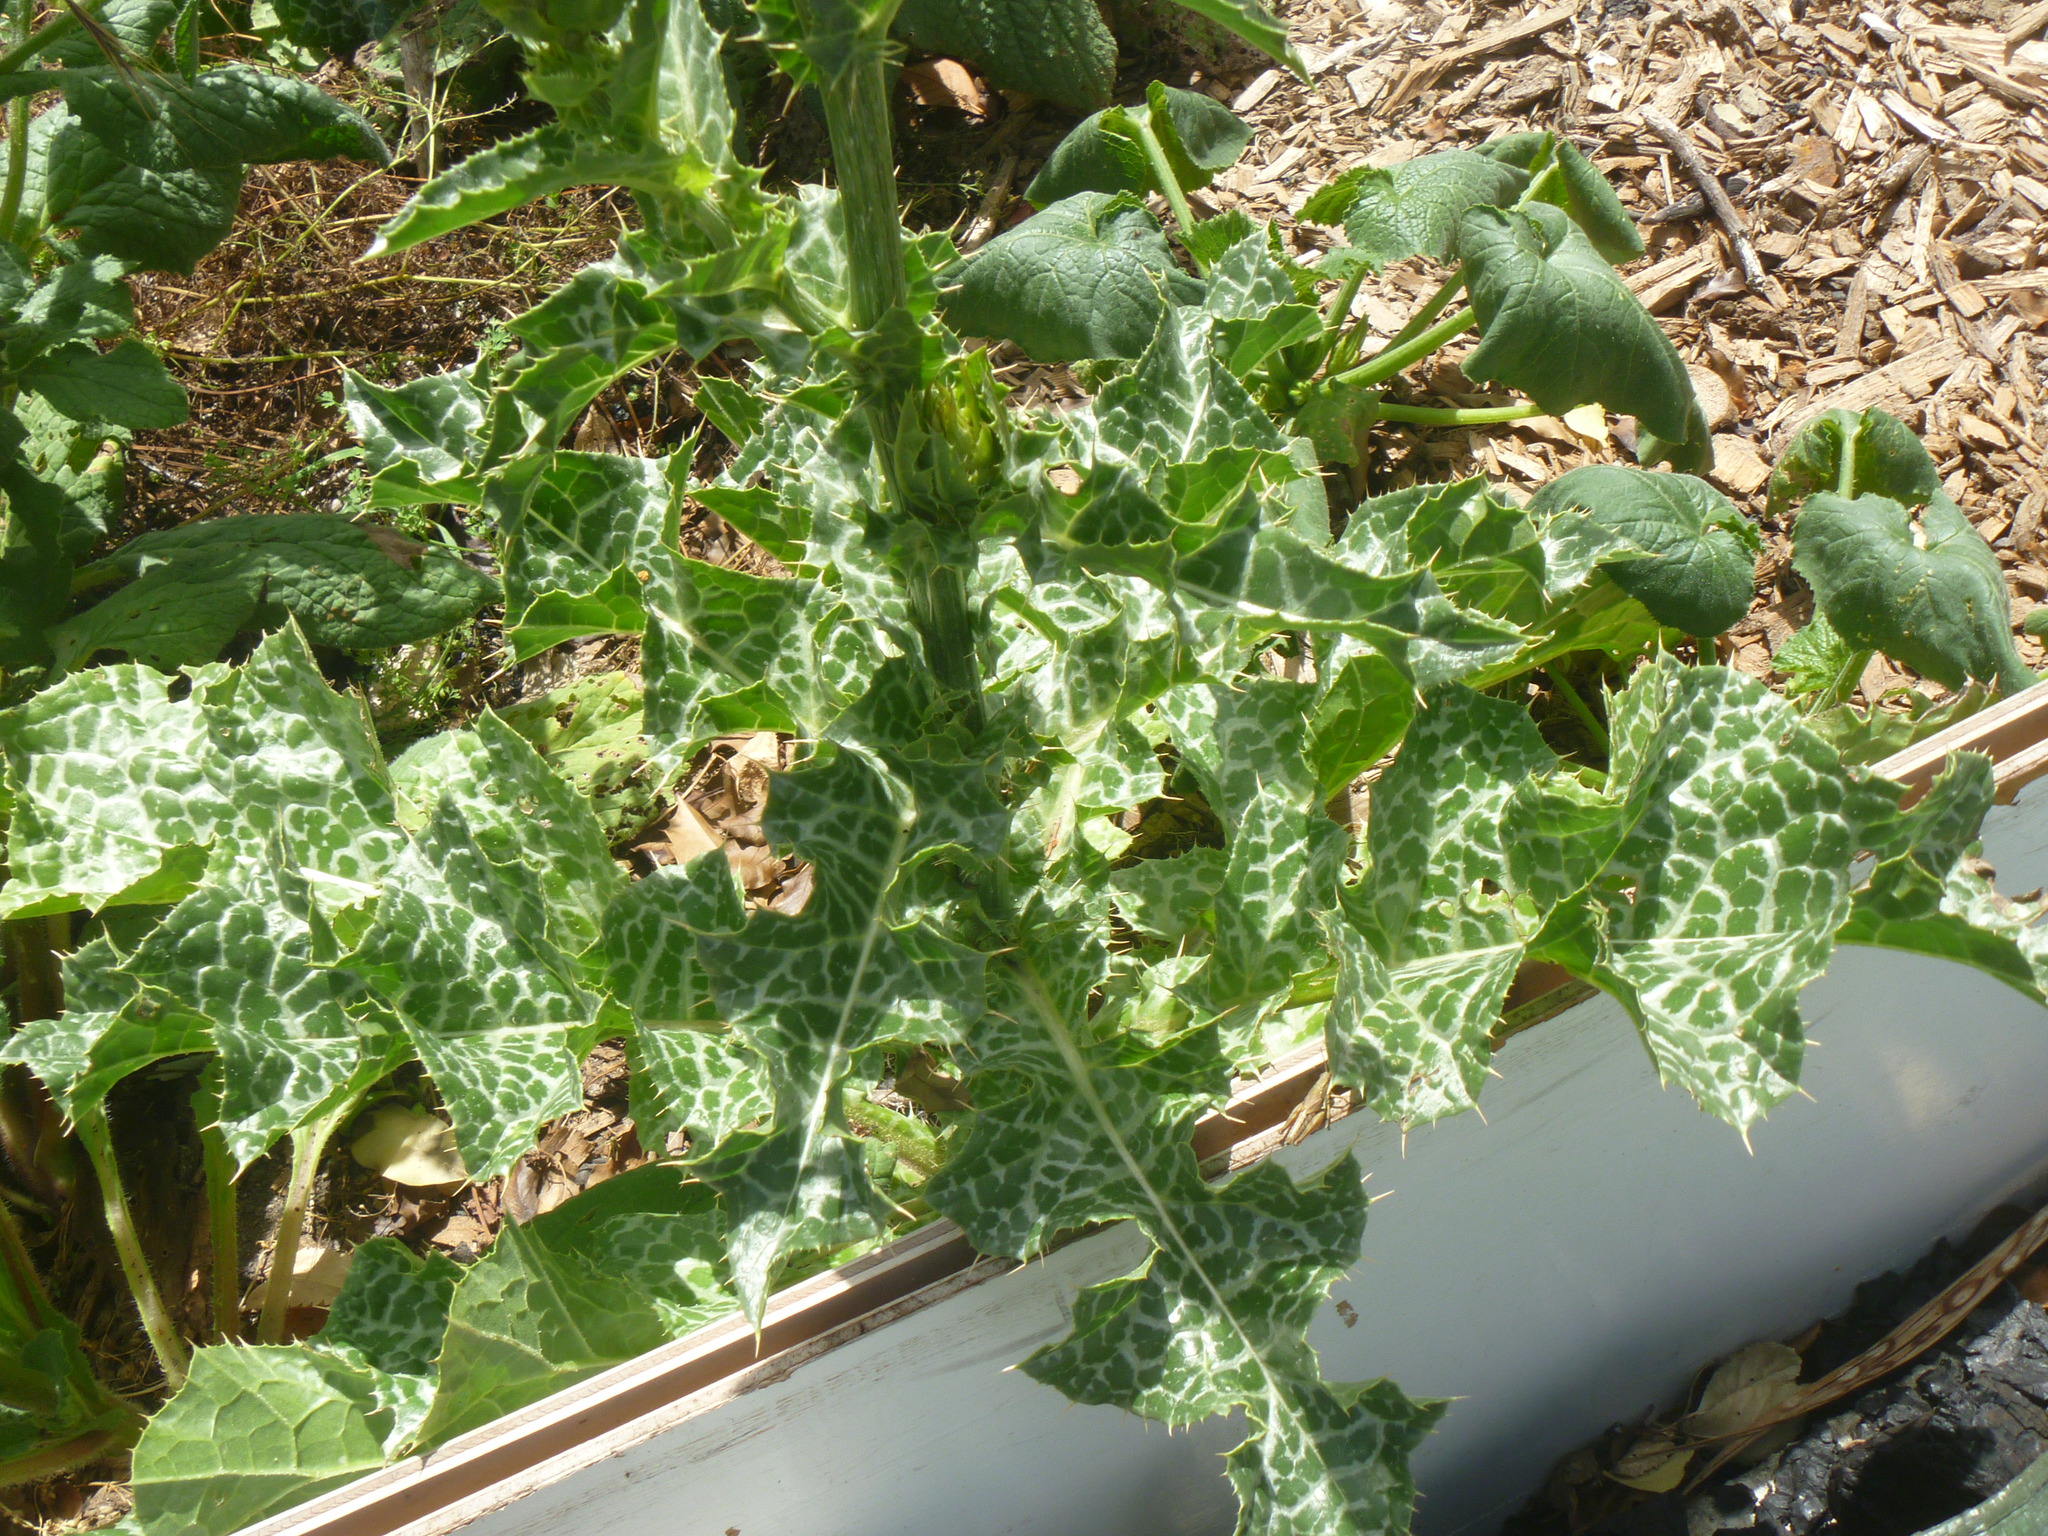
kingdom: Plantae
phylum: Tracheophyta
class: Magnoliopsida
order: Asterales
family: Asteraceae
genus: Silybum
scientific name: Silybum marianum
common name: Milk thistle
